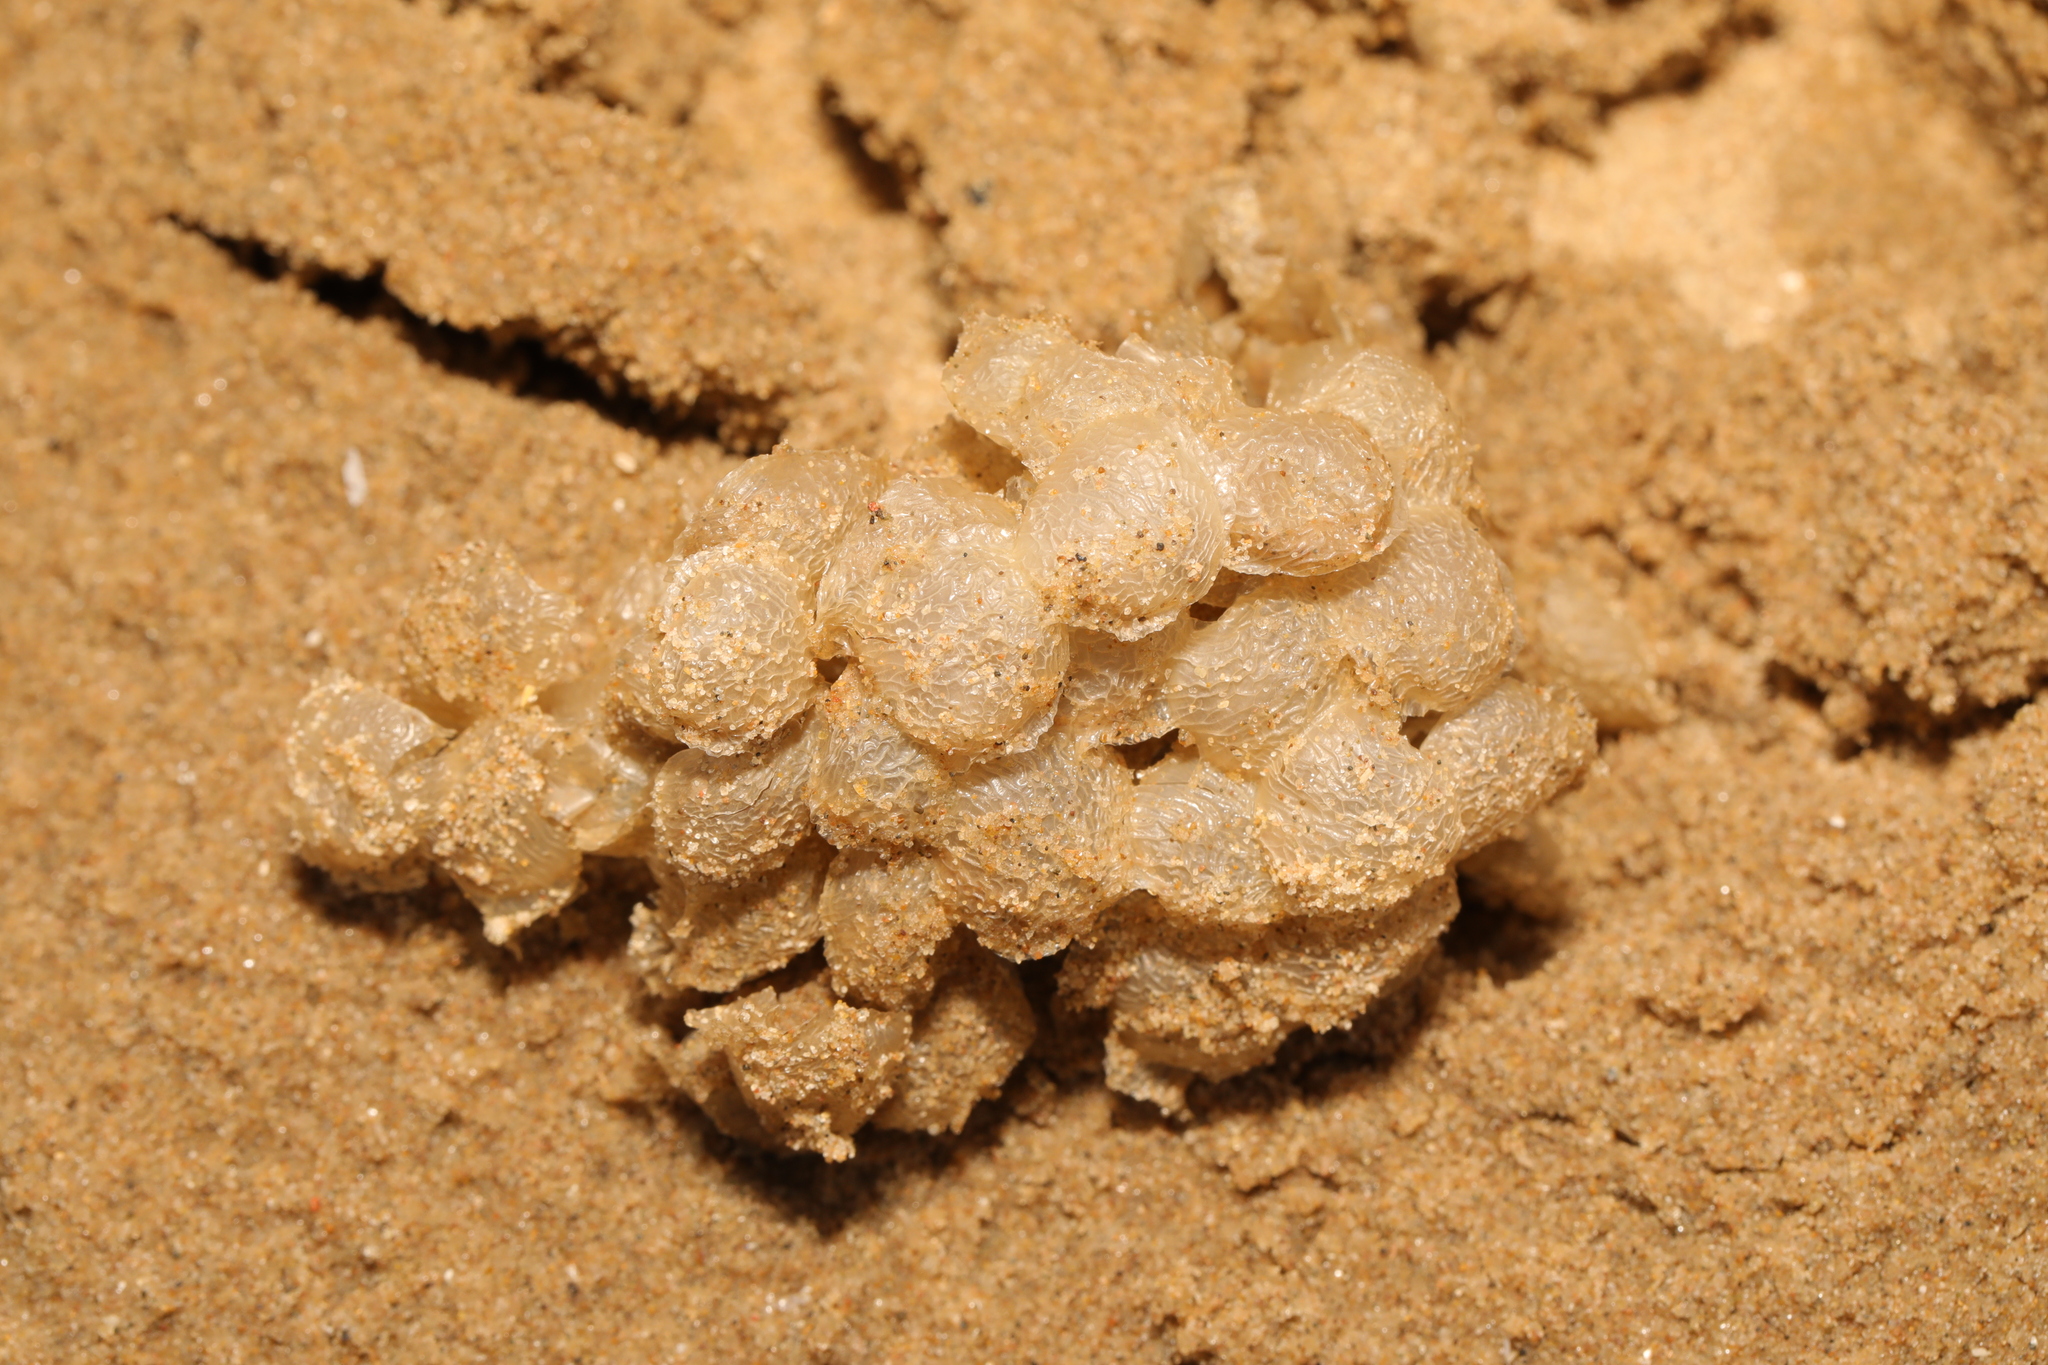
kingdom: Animalia
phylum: Mollusca
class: Gastropoda
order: Neogastropoda
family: Buccinidae
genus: Buccinum
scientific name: Buccinum undatum
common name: Common whelk
